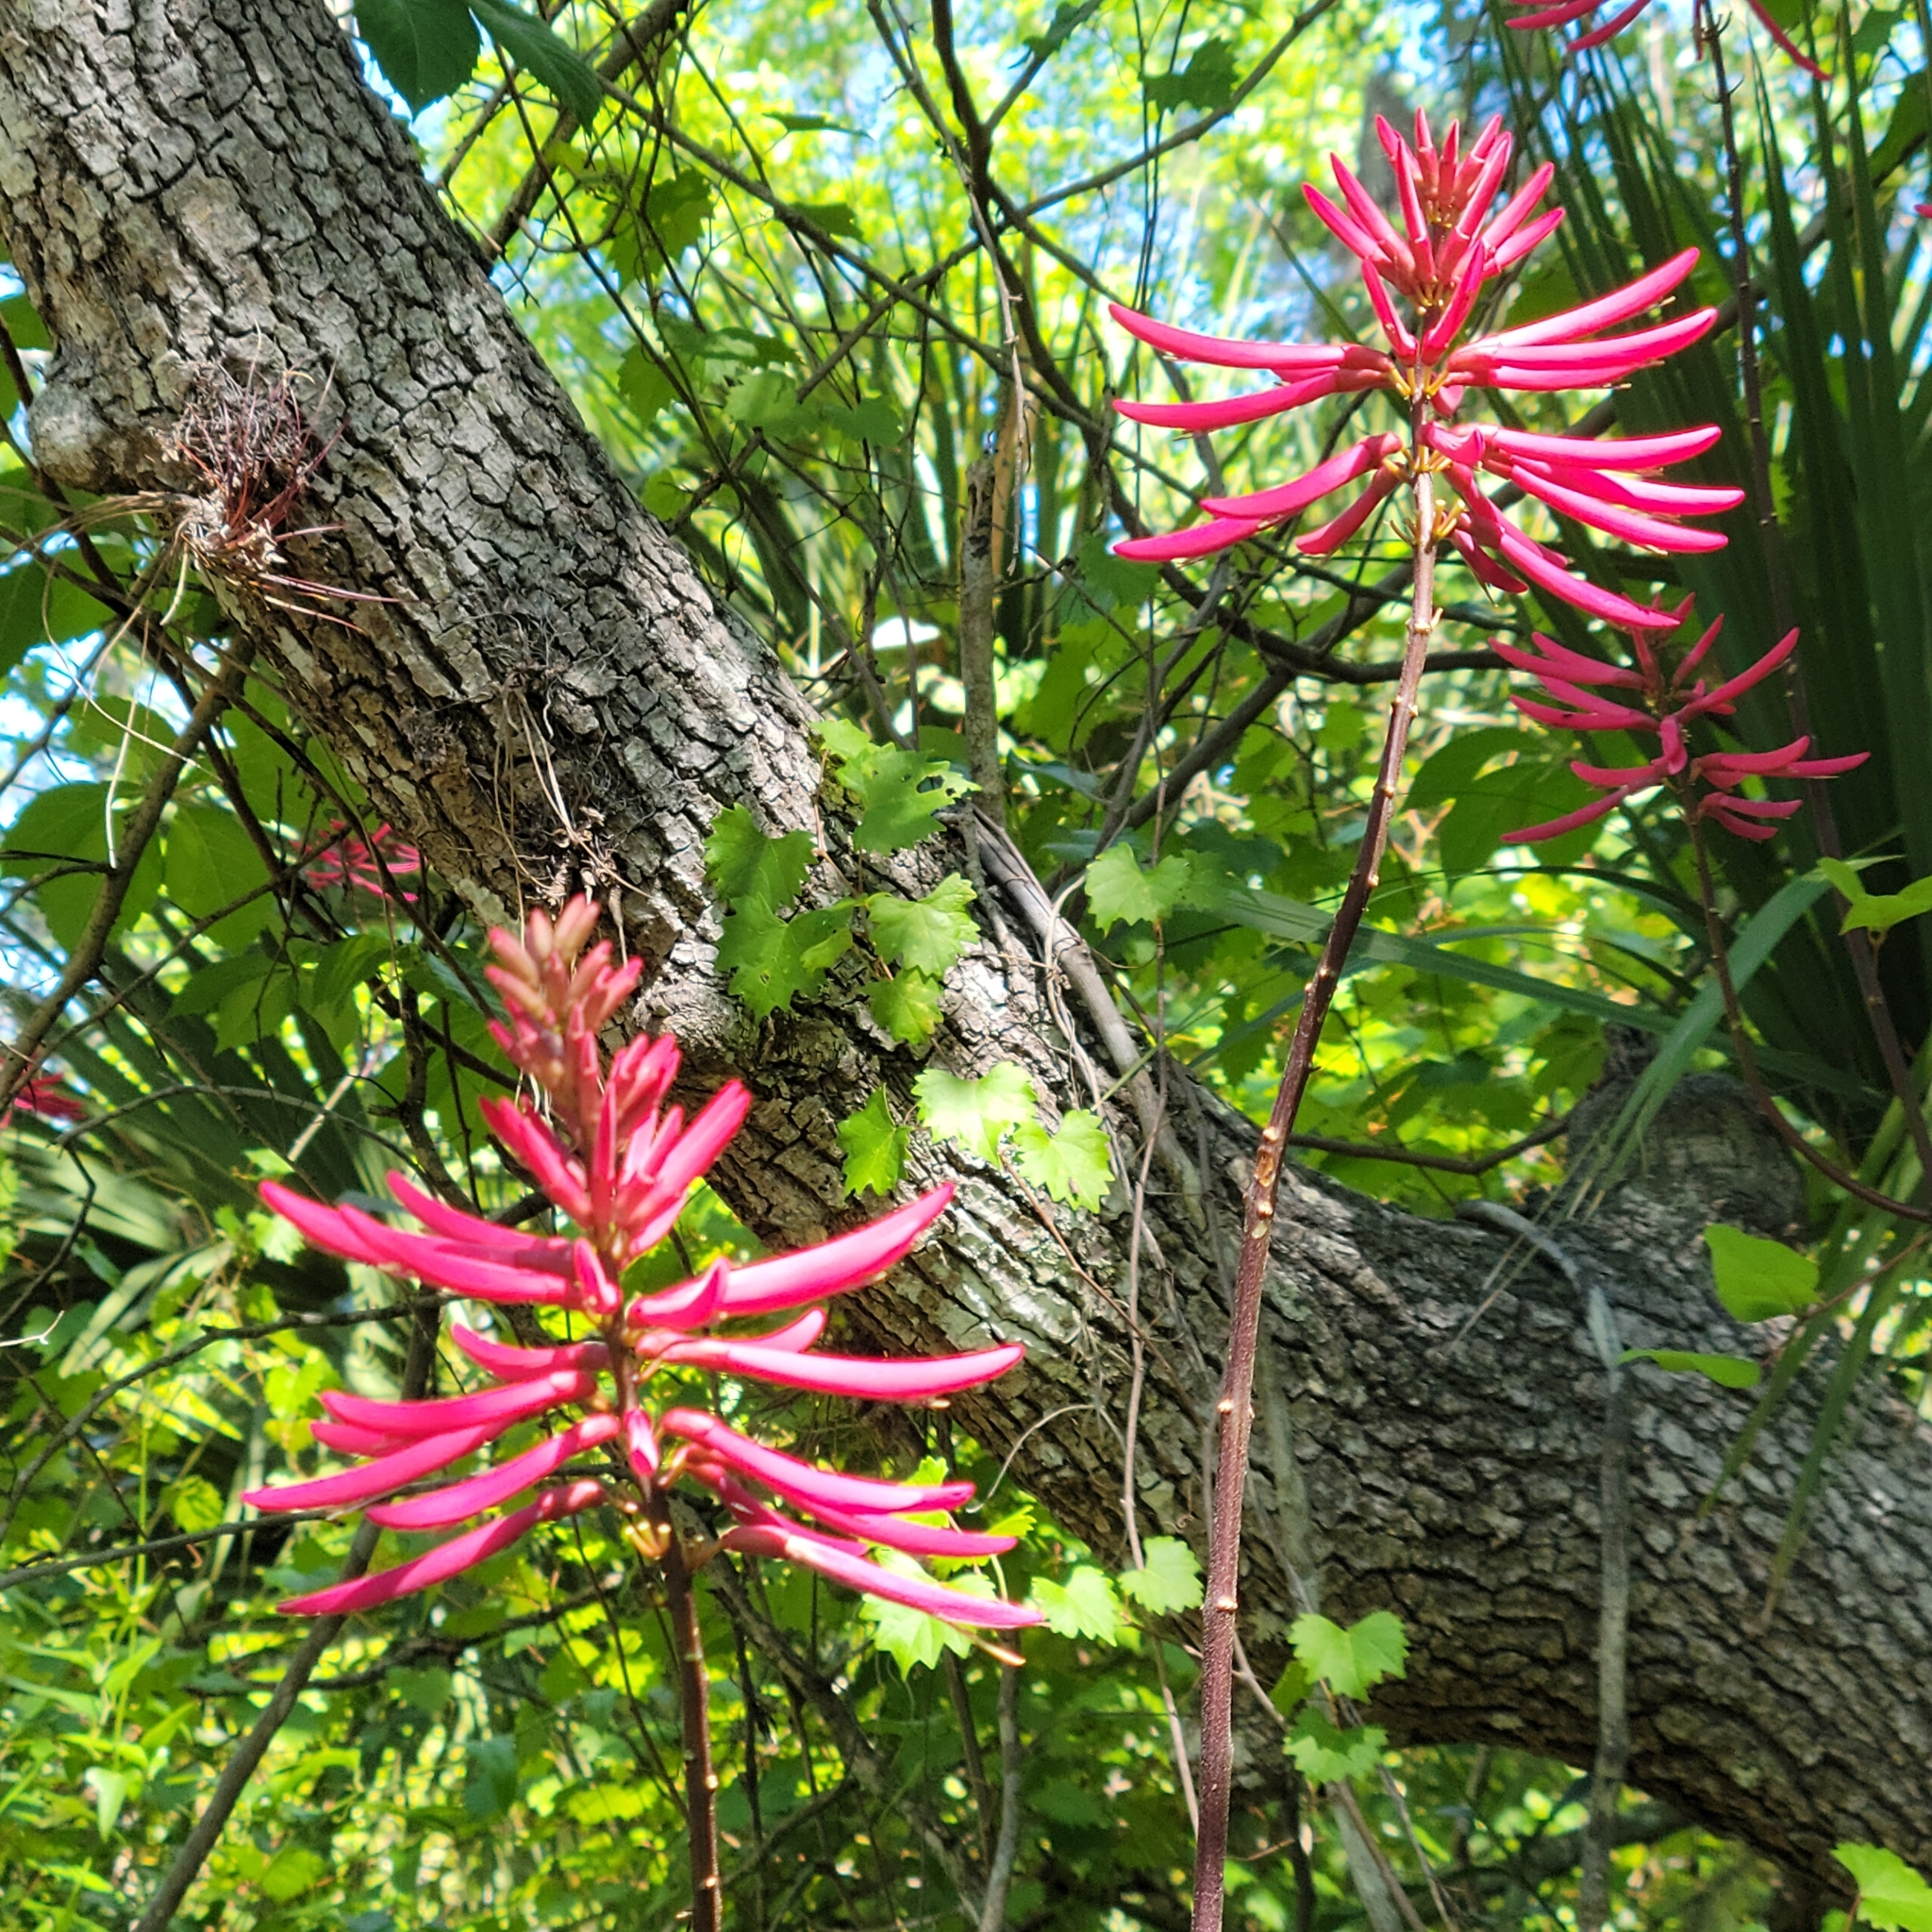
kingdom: Plantae
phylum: Tracheophyta
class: Magnoliopsida
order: Fabales
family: Fabaceae
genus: Erythrina
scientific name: Erythrina herbacea
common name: Coral-bean
